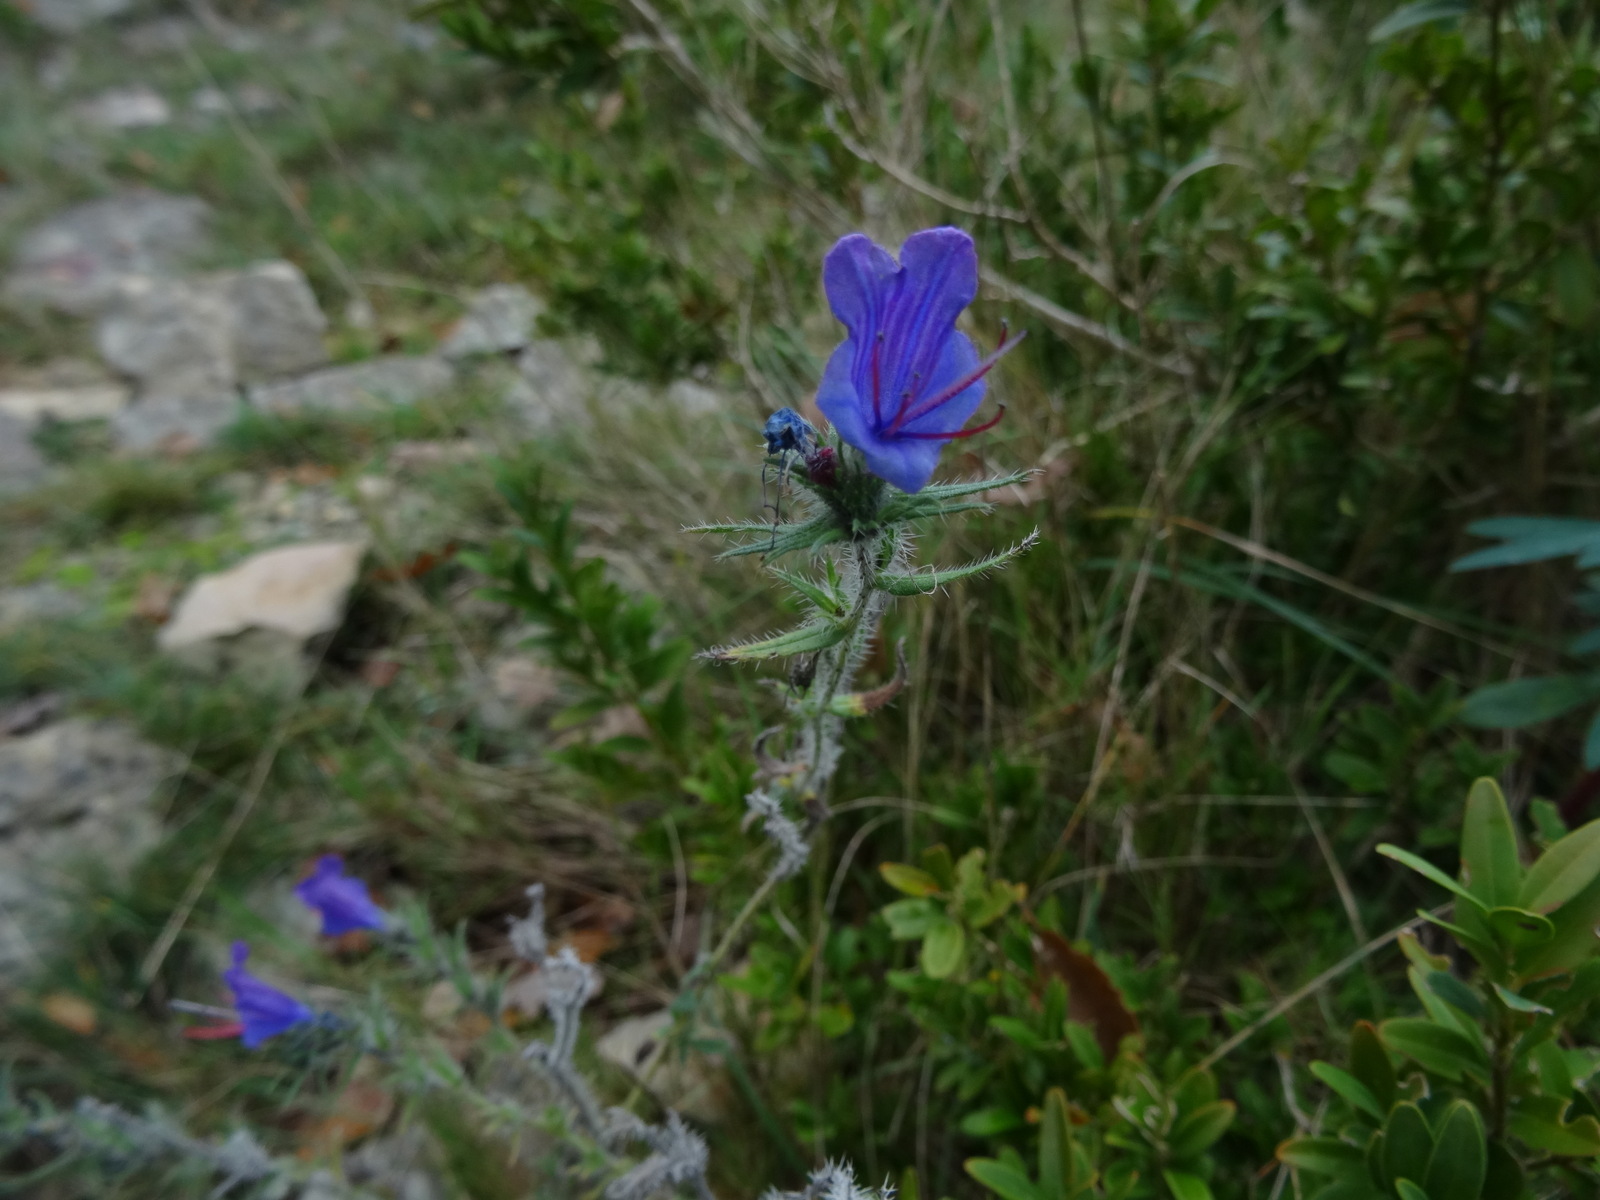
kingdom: Plantae
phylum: Tracheophyta
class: Magnoliopsida
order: Boraginales
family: Boraginaceae
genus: Echium
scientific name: Echium vulgare
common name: Common viper's bugloss
